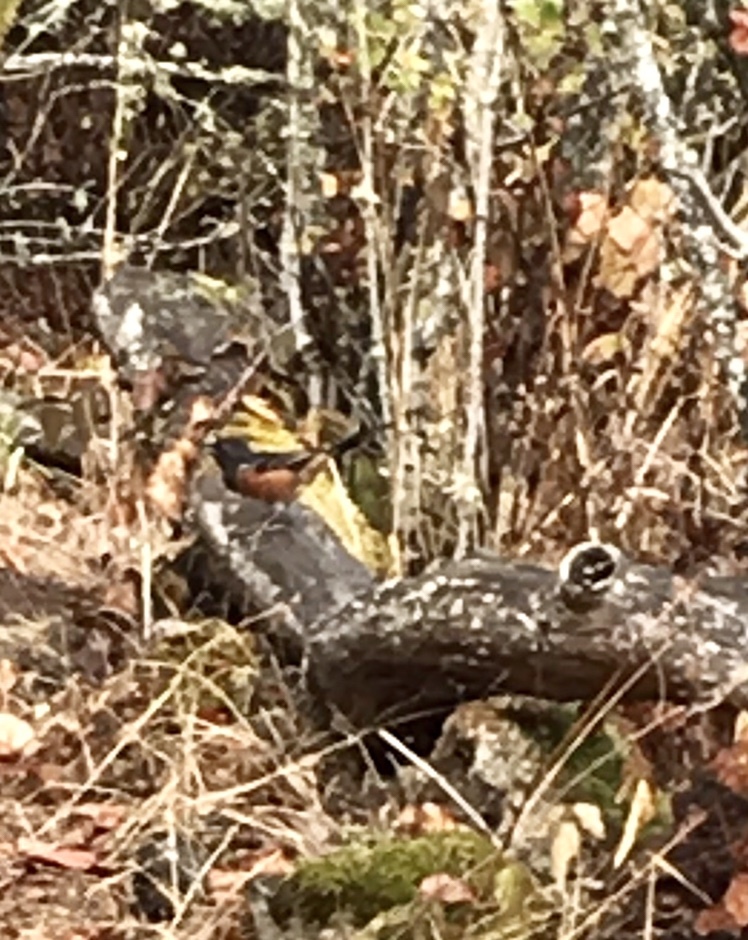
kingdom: Animalia
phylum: Chordata
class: Aves
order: Passeriformes
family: Passerellidae
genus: Pipilo
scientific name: Pipilo maculatus
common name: Spotted towhee
